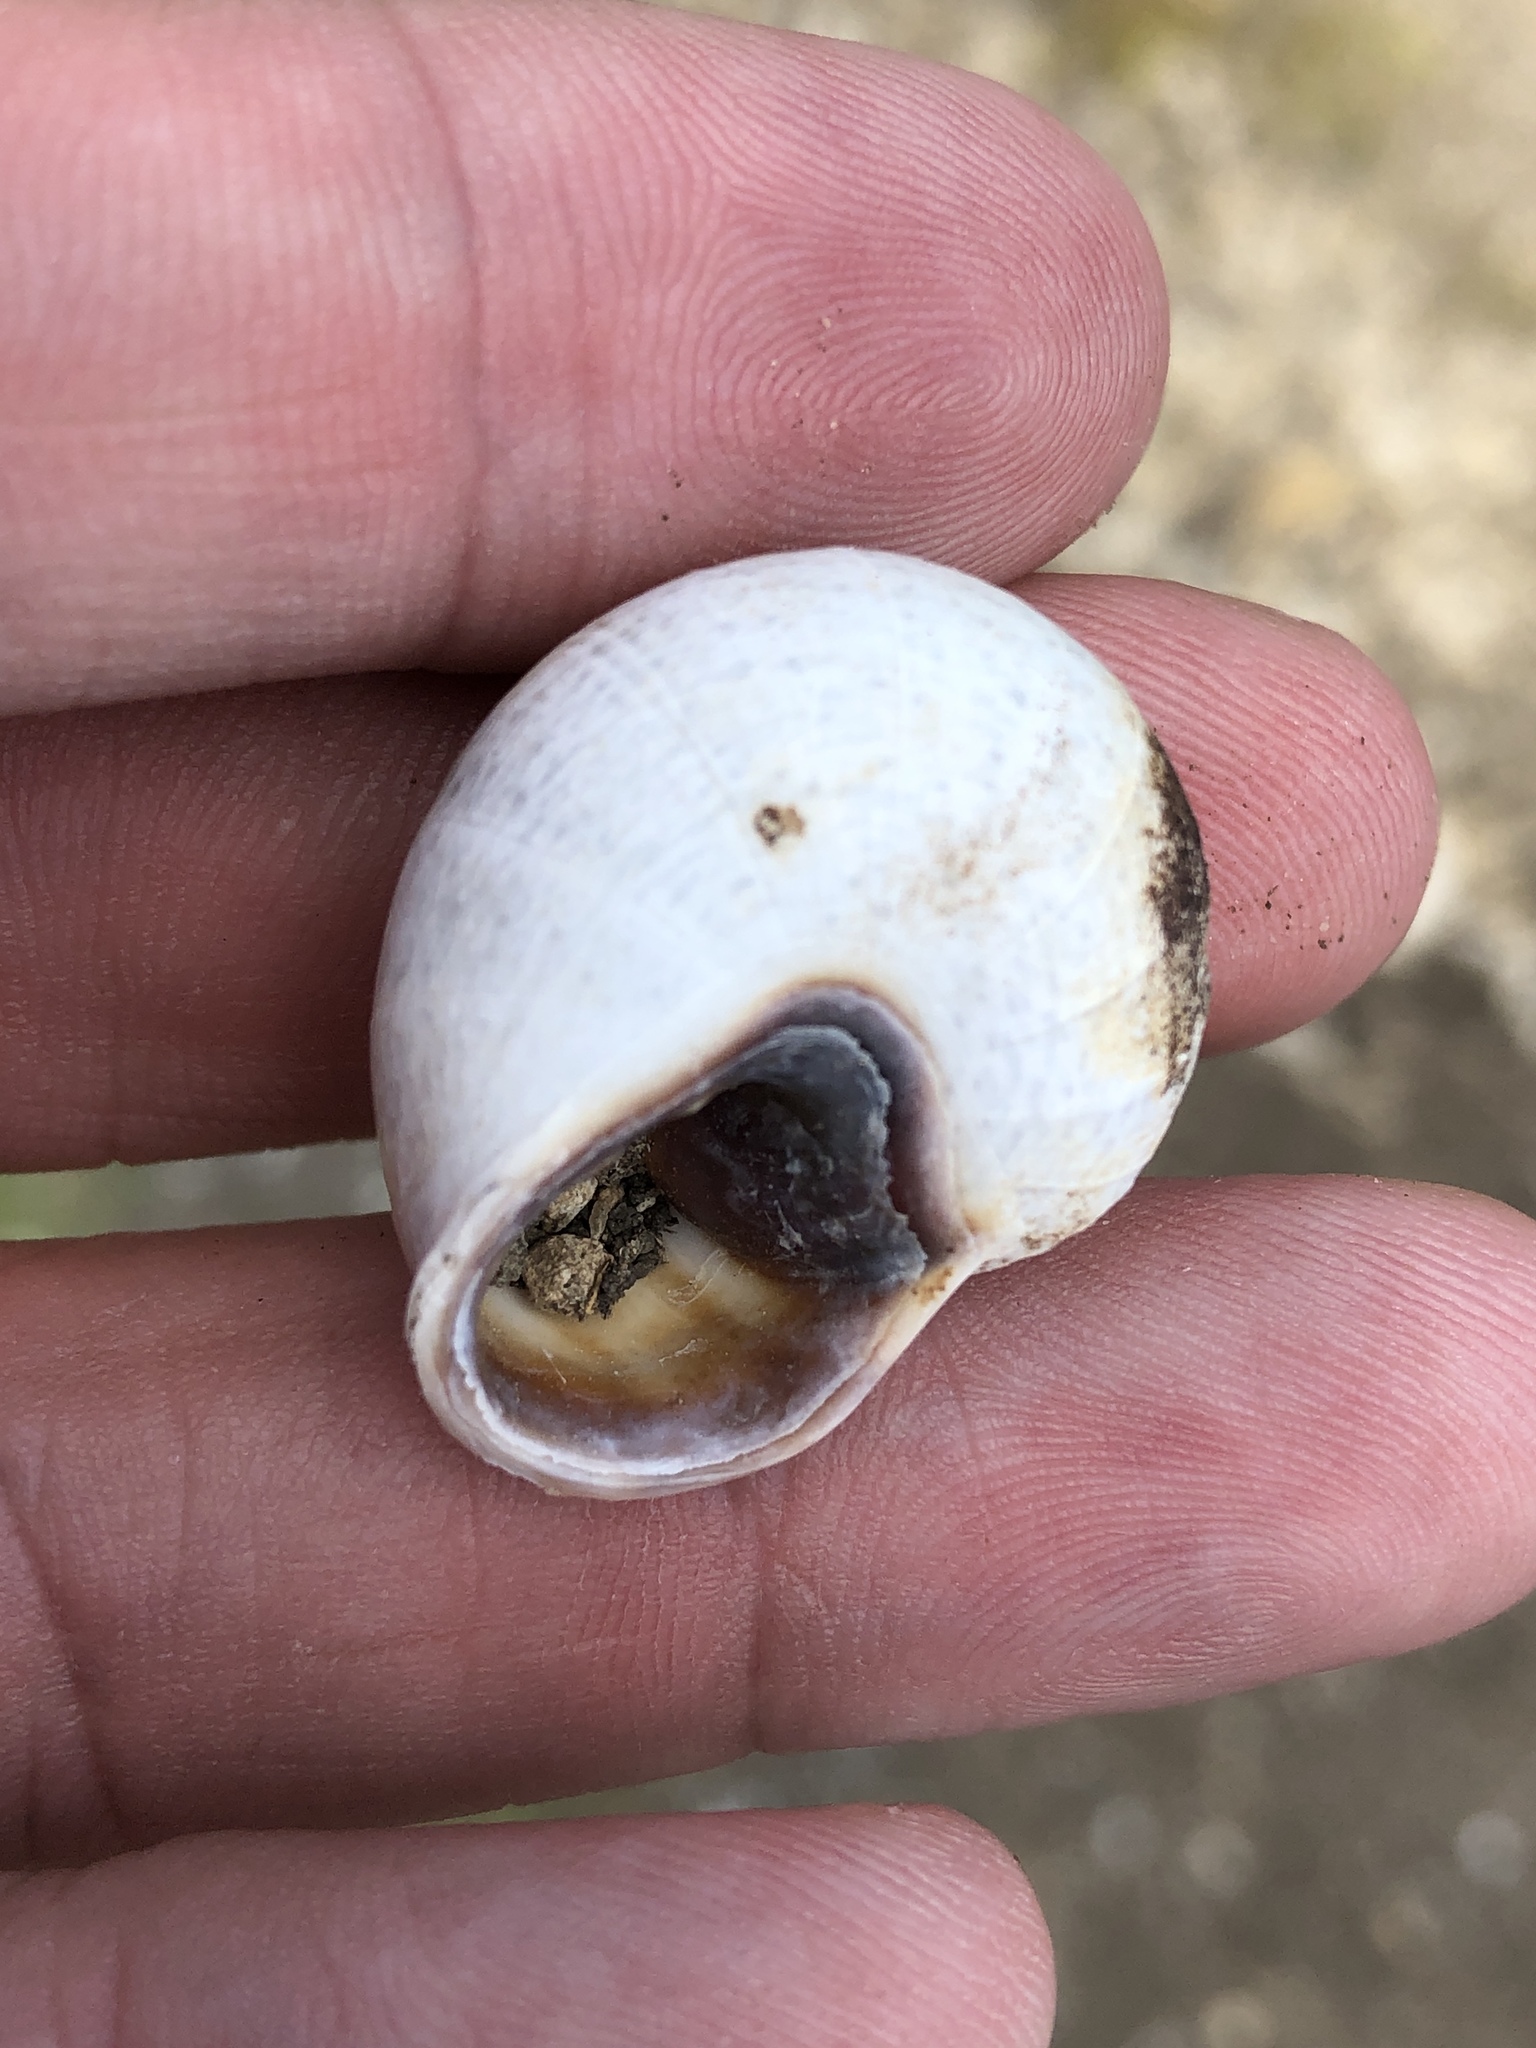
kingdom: Animalia
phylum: Mollusca
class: Gastropoda
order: Stylommatophora
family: Helicidae
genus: Otala
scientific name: Otala lactea
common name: Milk snail
